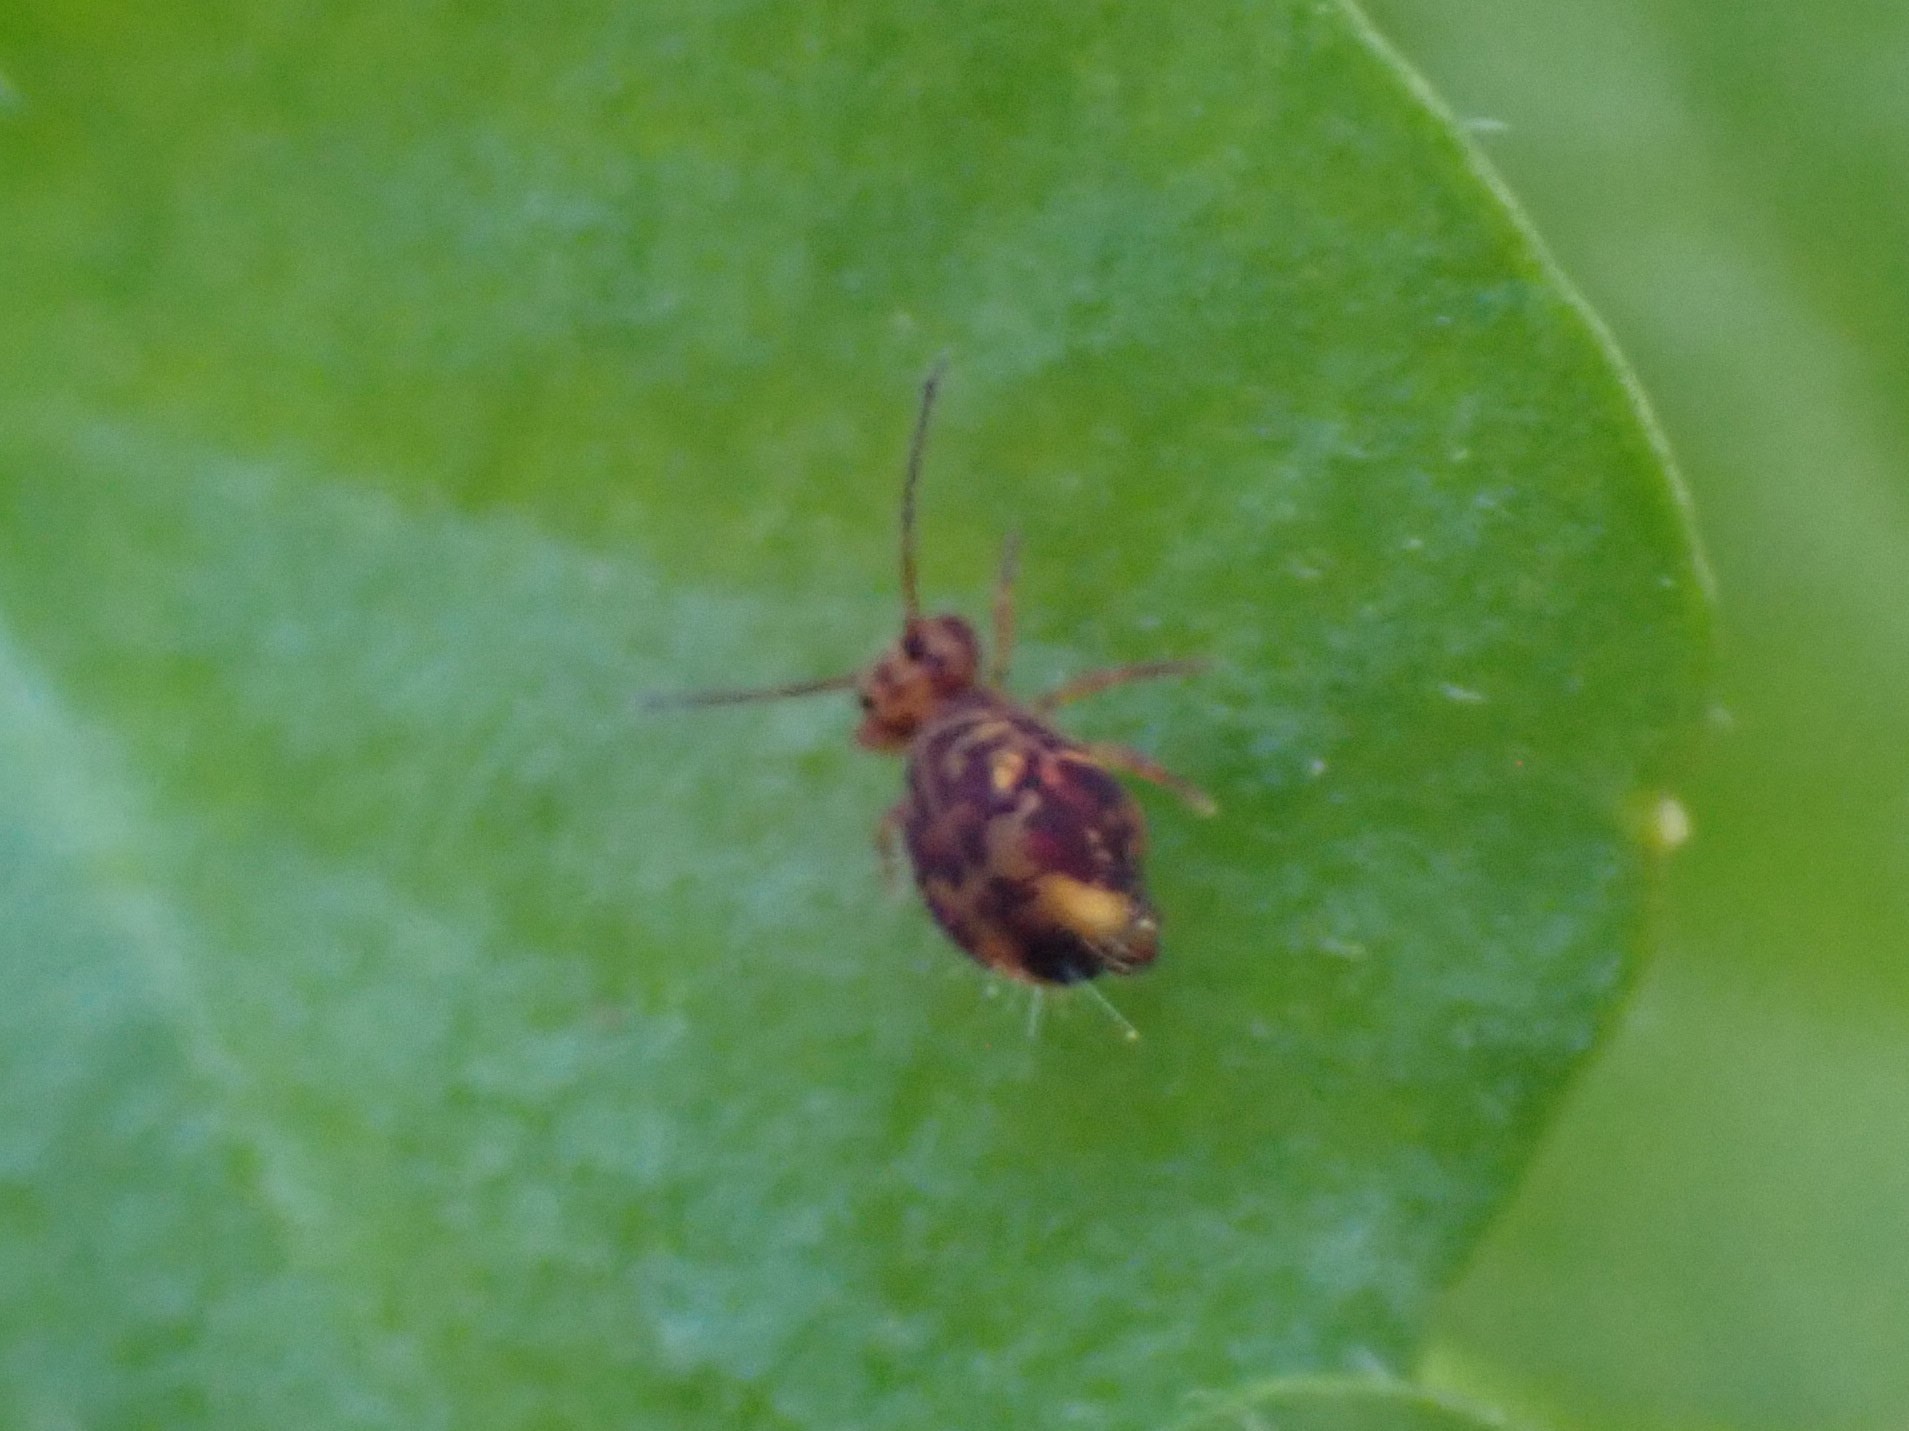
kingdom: Animalia
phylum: Arthropoda
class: Collembola
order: Symphypleona
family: Dicyrtomidae
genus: Dicyrtomina
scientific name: Dicyrtomina minuta
